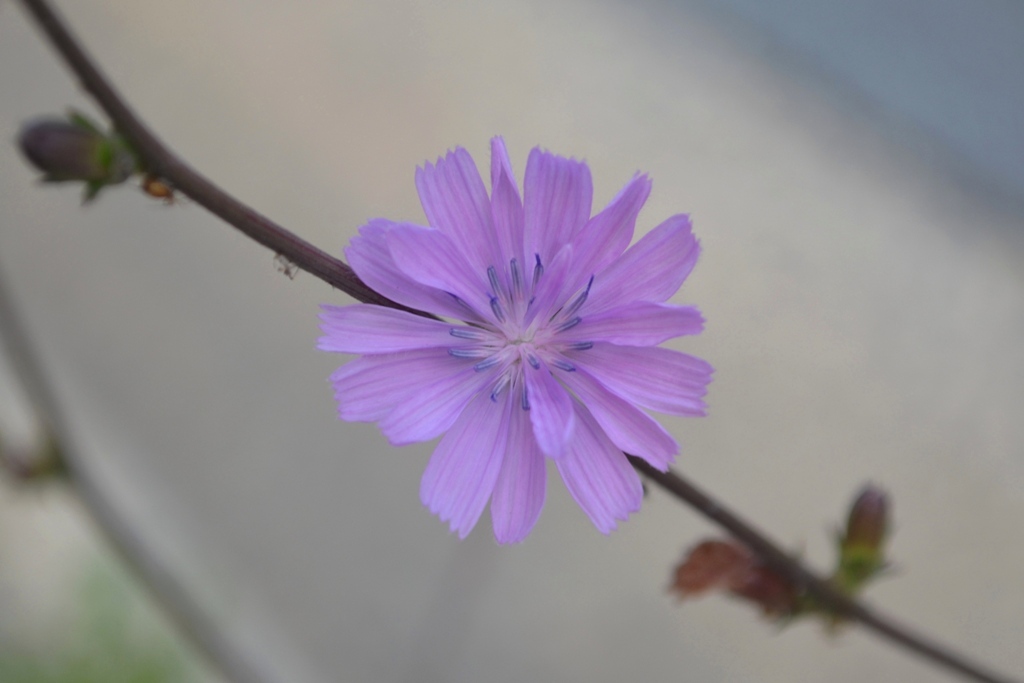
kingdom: Plantae
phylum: Tracheophyta
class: Magnoliopsida
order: Asterales
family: Asteraceae
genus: Cichorium
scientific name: Cichorium intybus
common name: Chicory
